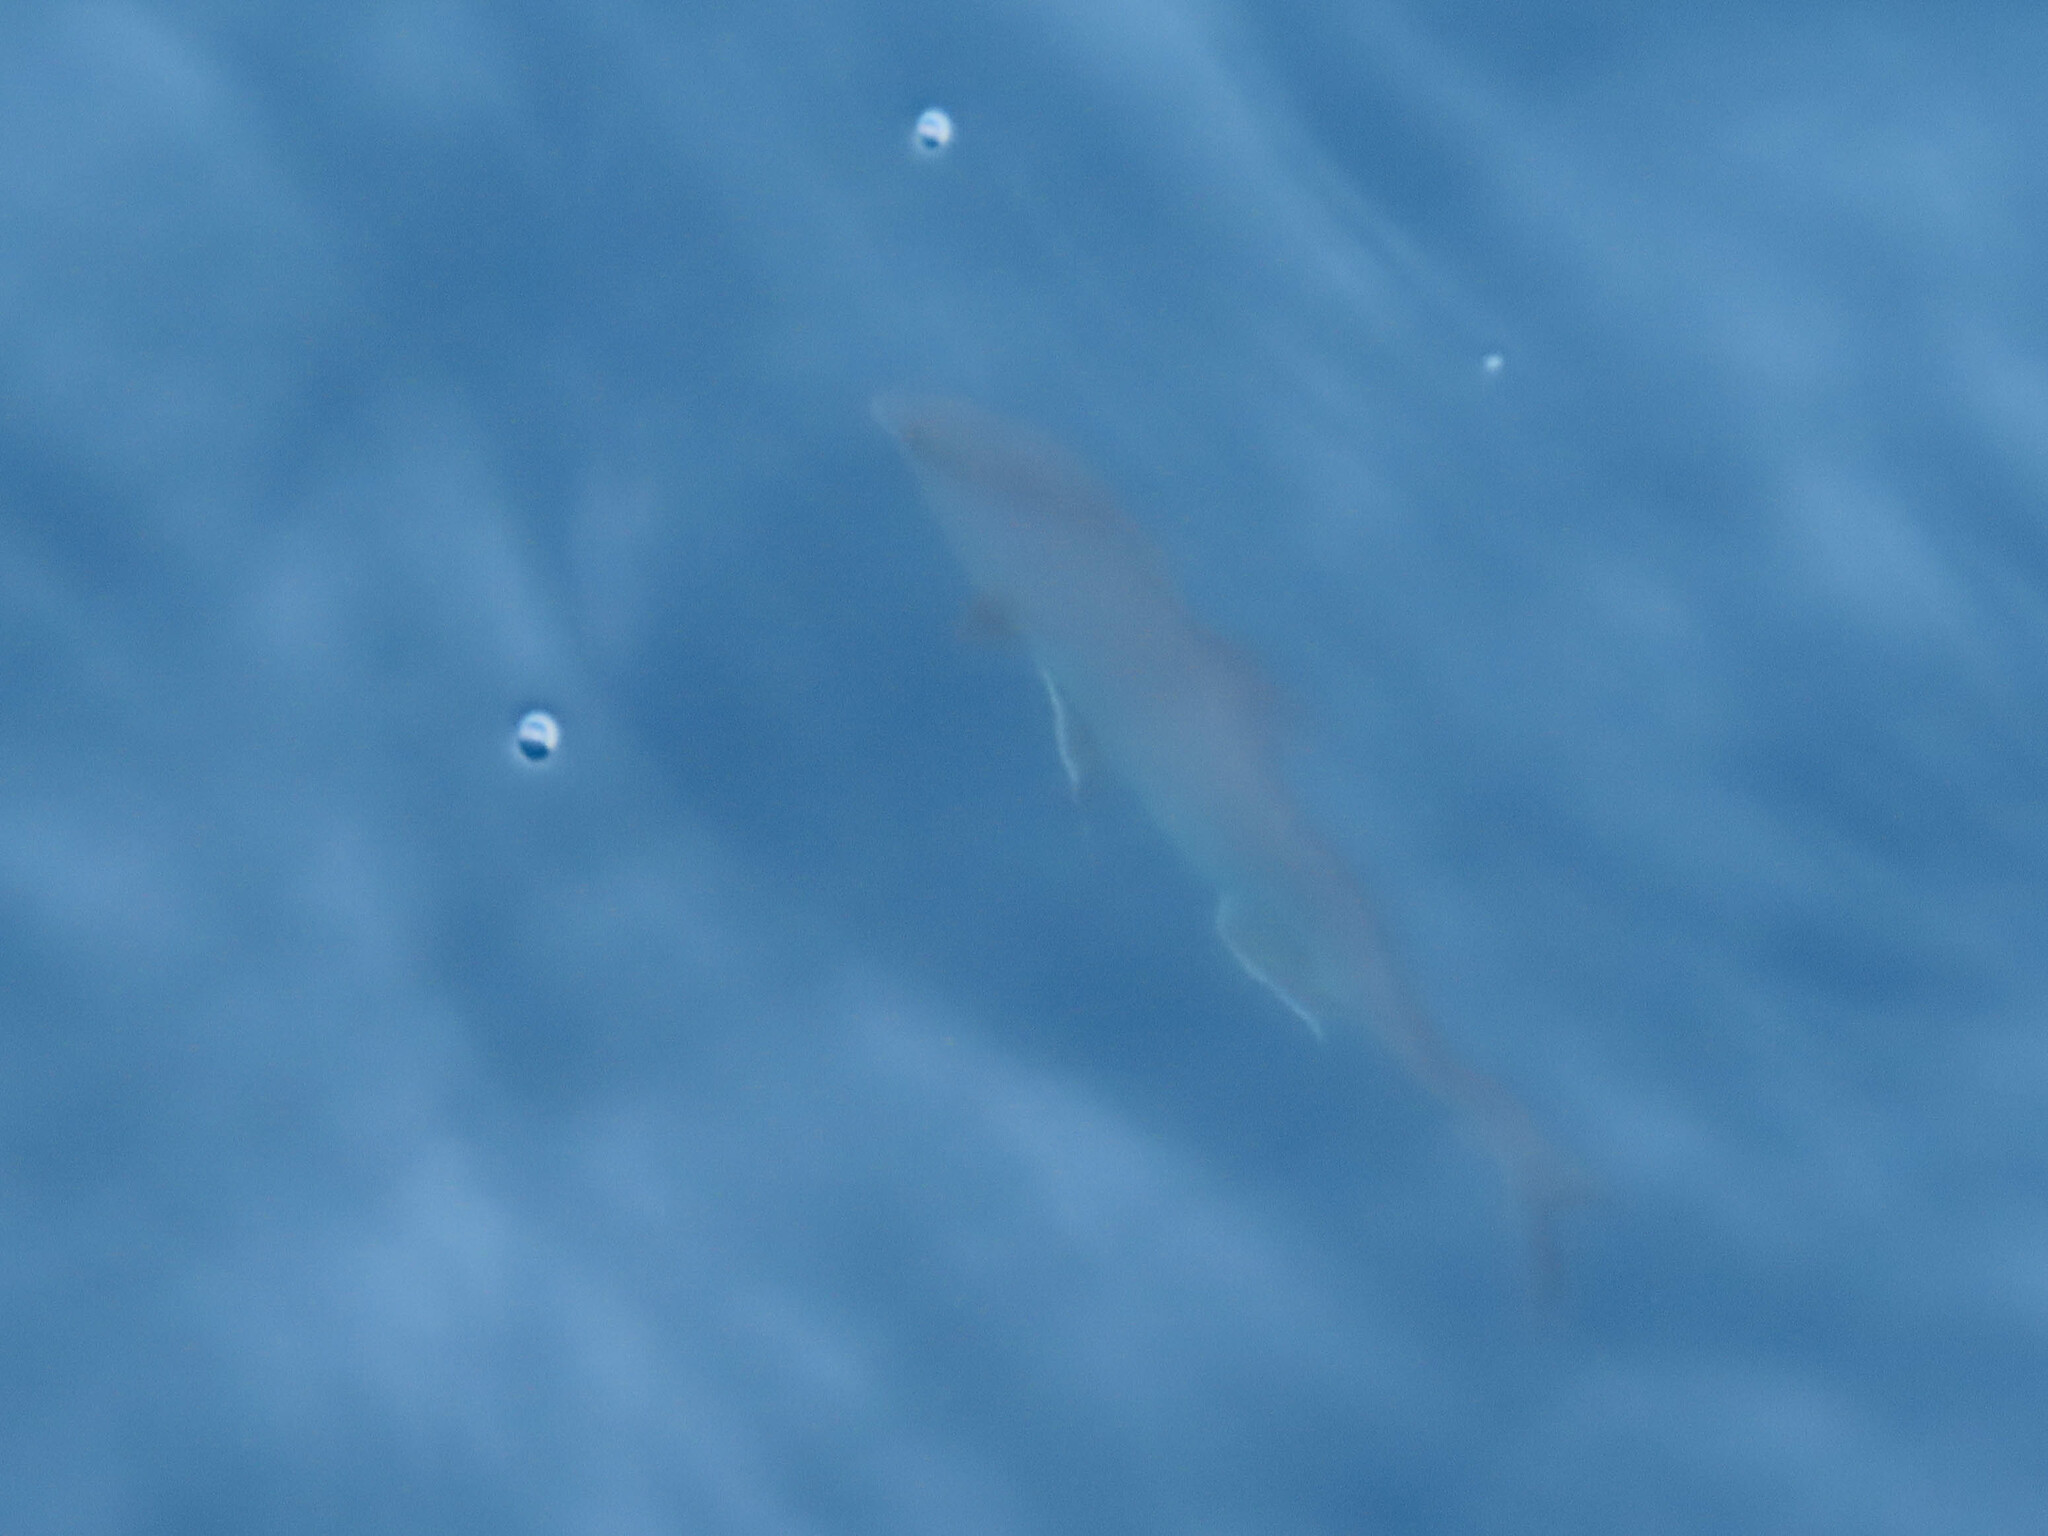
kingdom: Animalia
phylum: Chordata
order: Perciformes
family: Carangidae
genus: Seriola
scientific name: Seriola rivoliana
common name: Almaco jack
